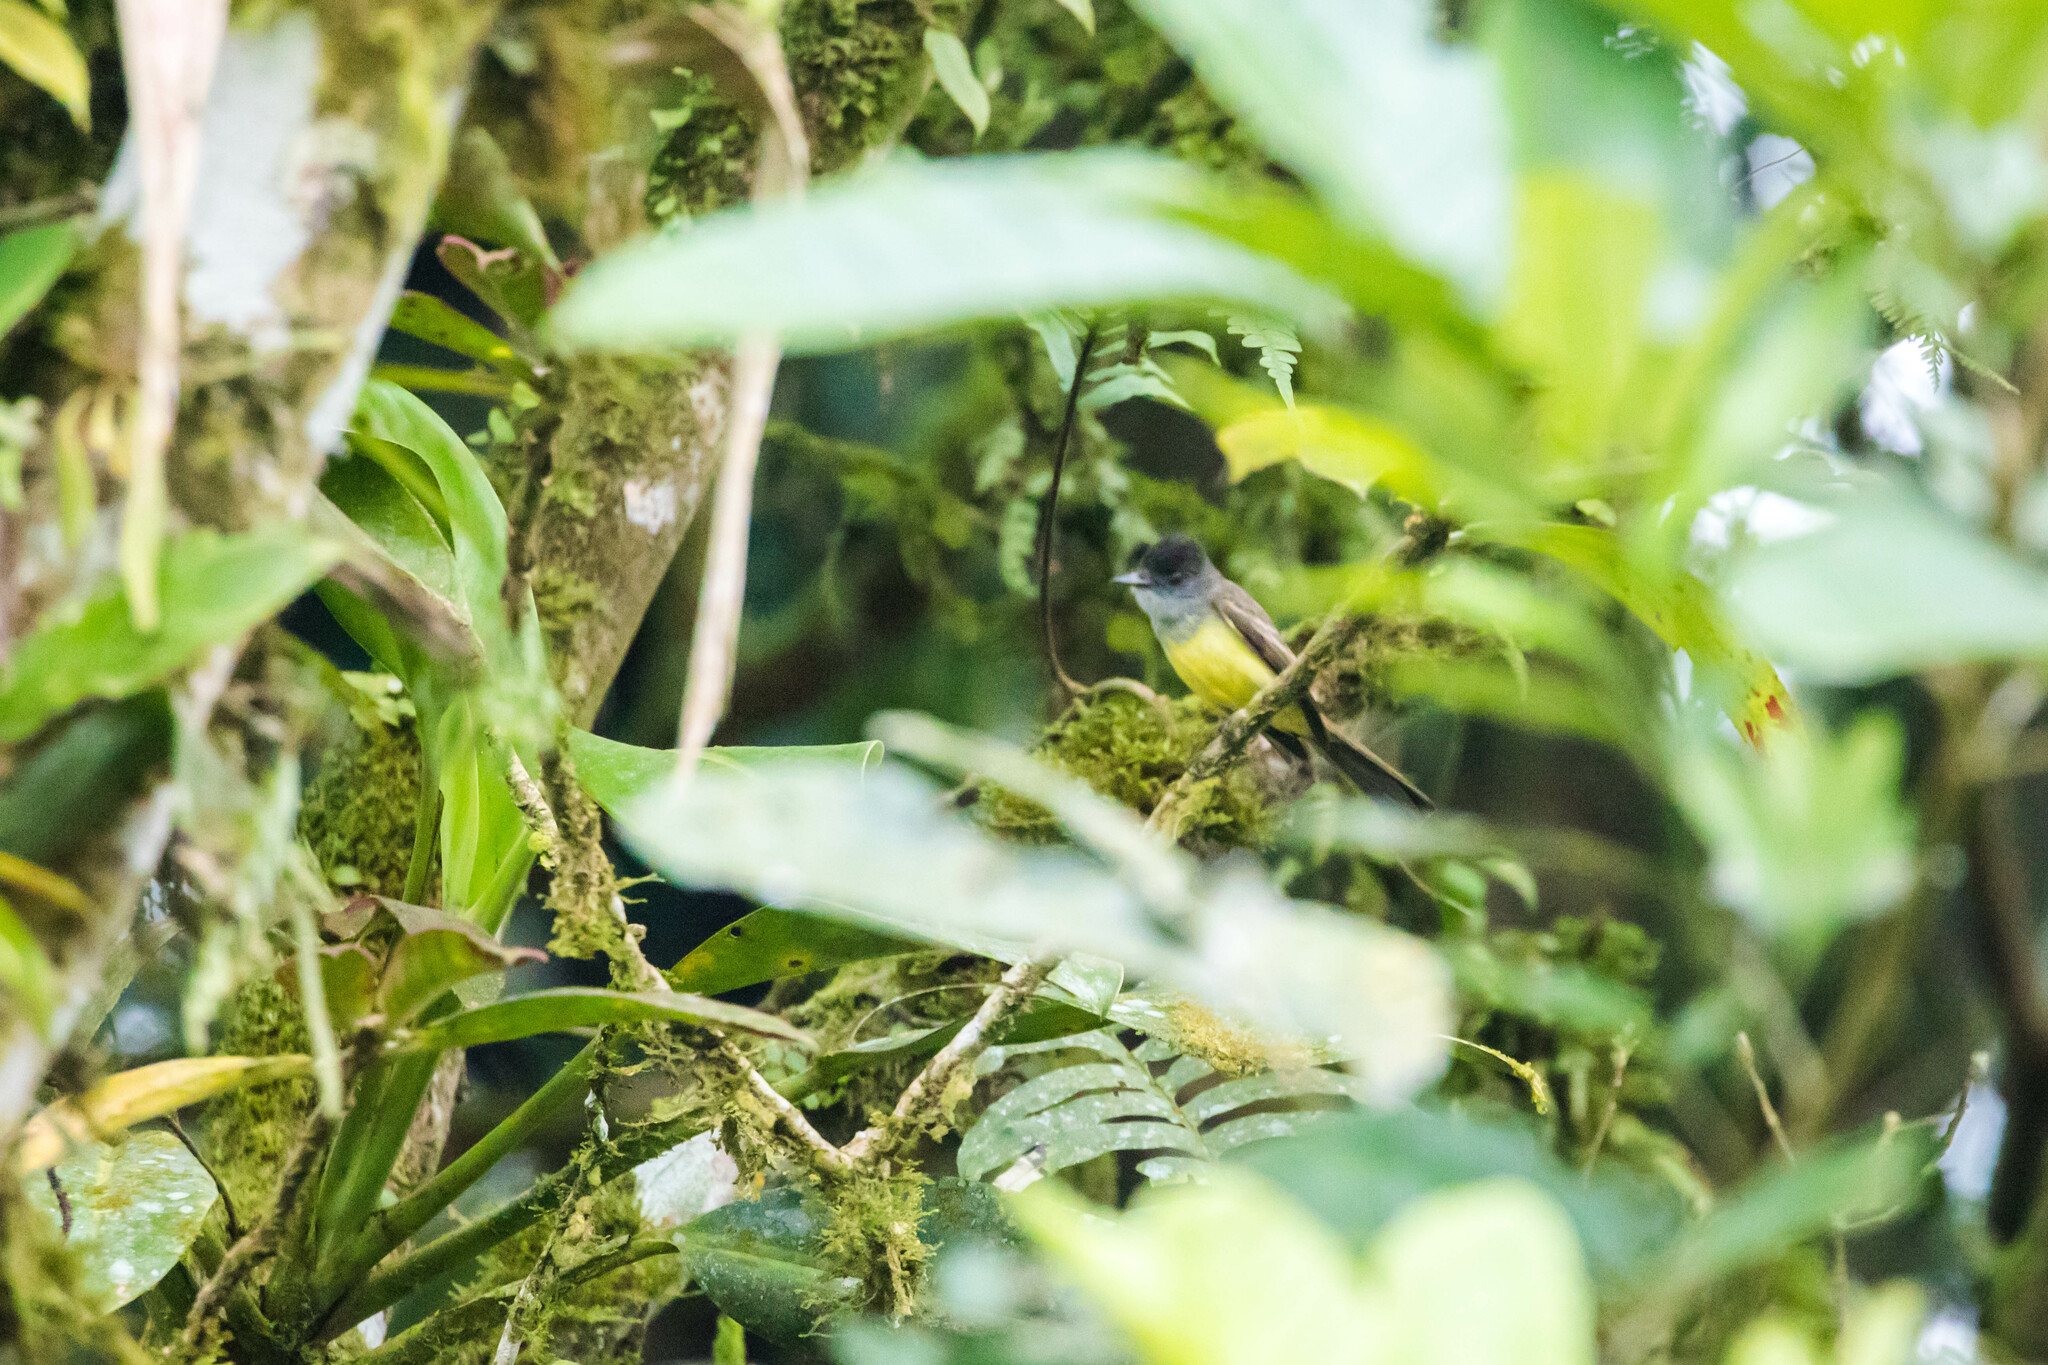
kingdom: Animalia
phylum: Chordata
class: Aves
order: Passeriformes
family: Tyrannidae
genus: Myiarchus
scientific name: Myiarchus tuberculifer
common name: Dusky-capped flycatcher
